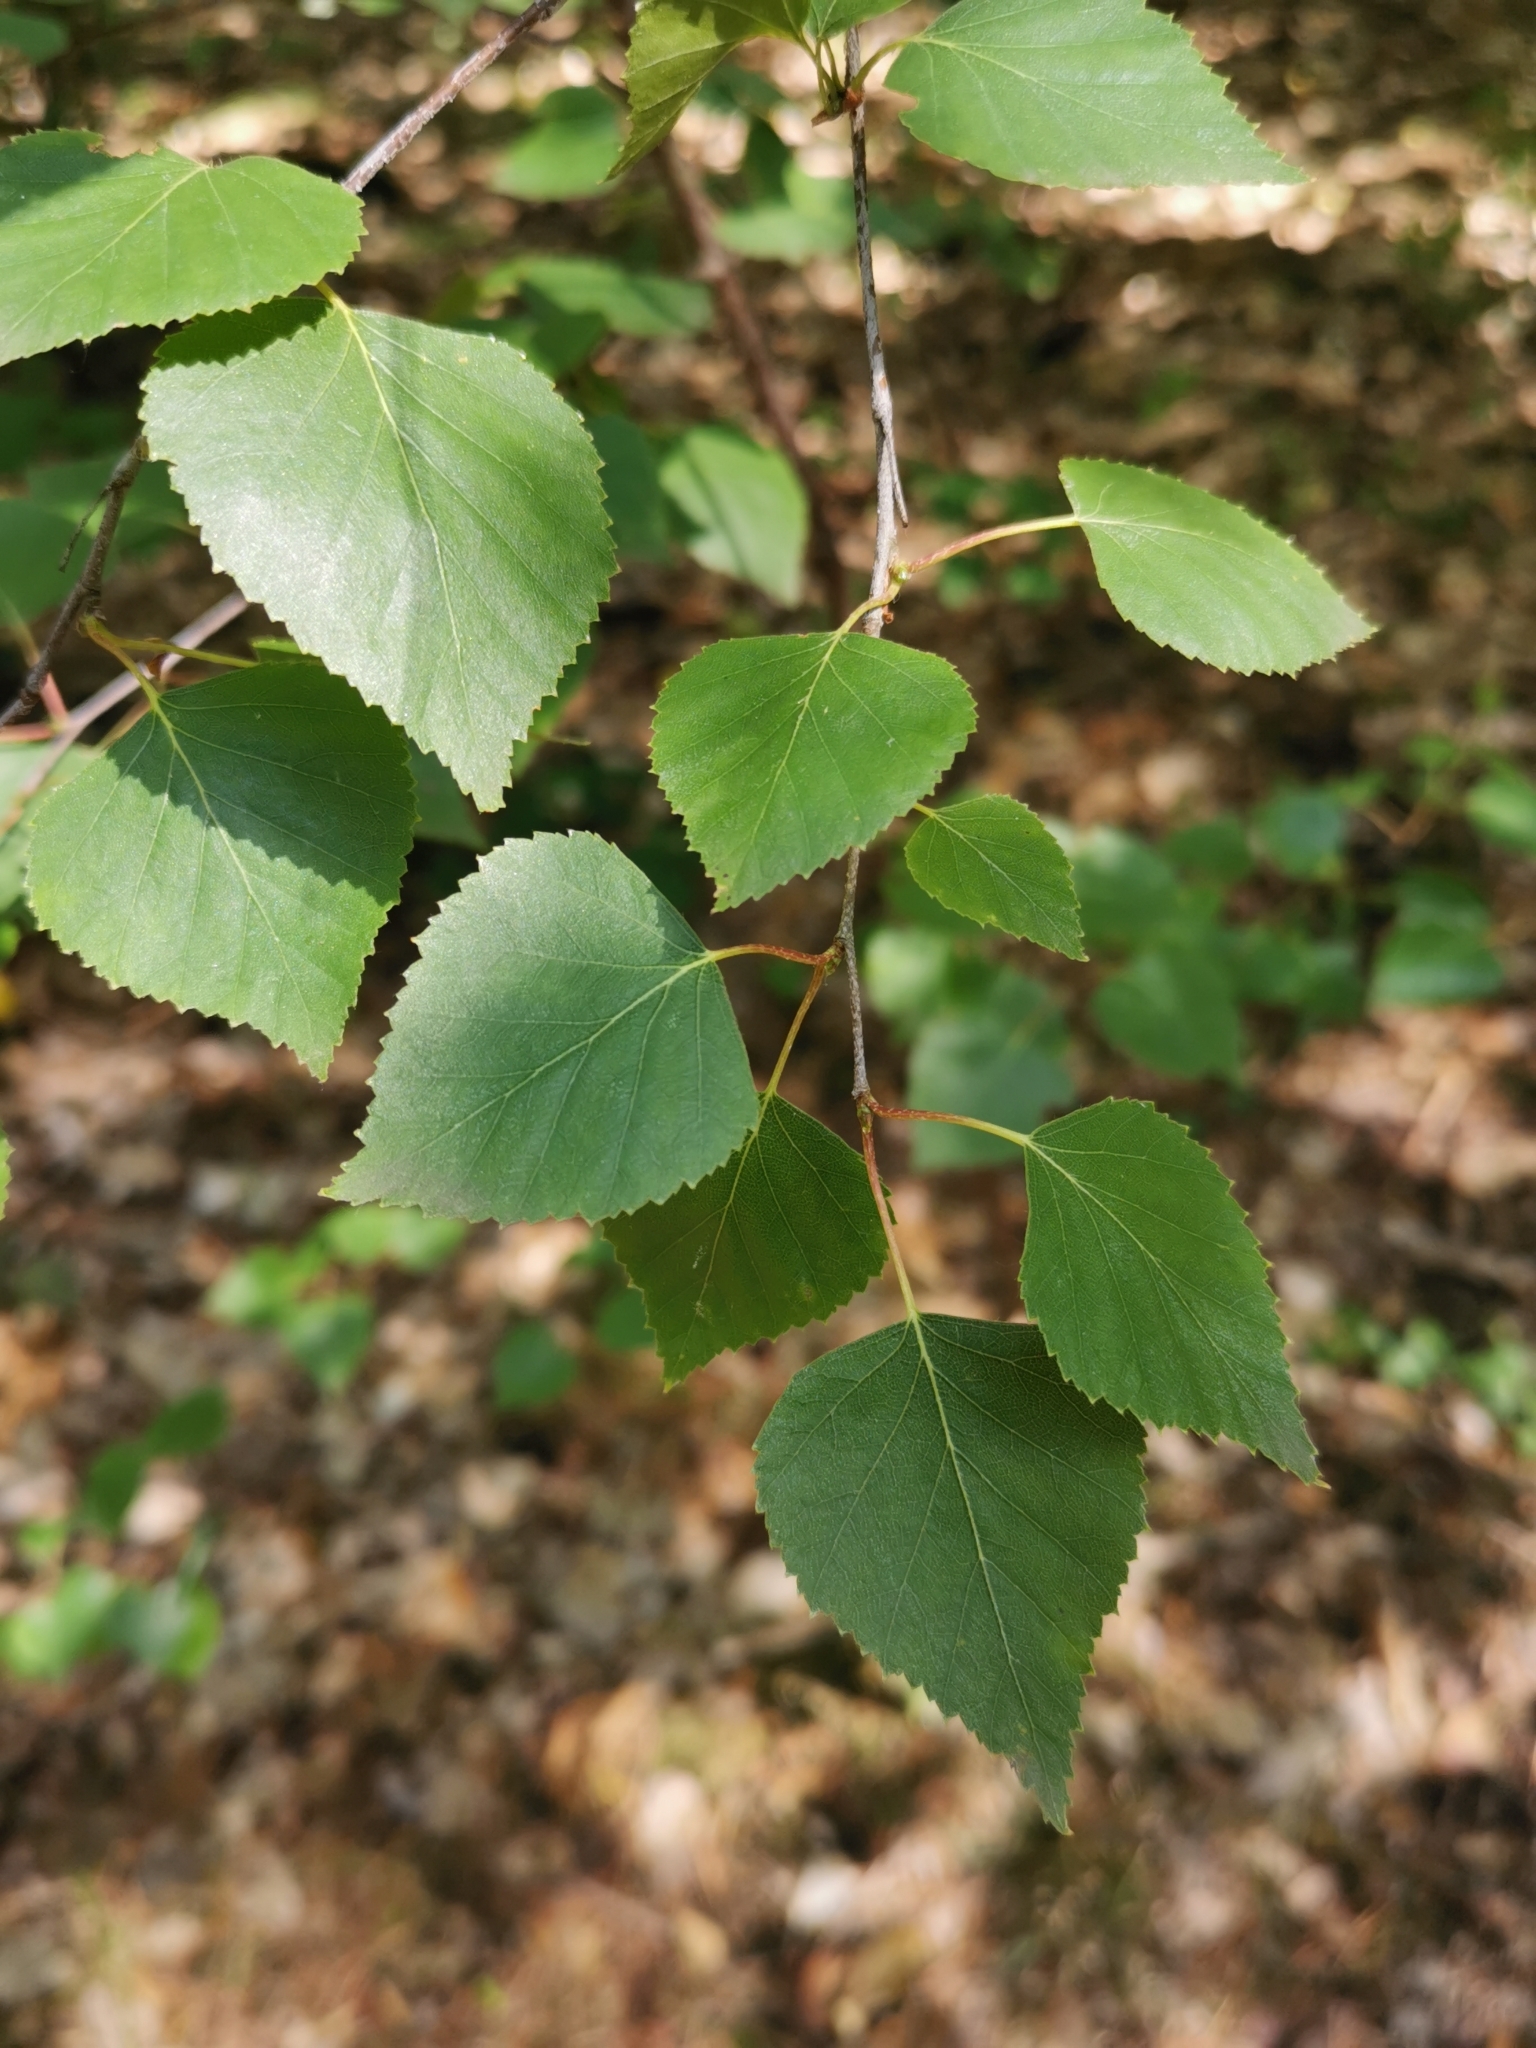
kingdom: Plantae
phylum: Tracheophyta
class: Magnoliopsida
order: Fagales
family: Betulaceae
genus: Betula
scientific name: Betula pendula
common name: Silver birch
